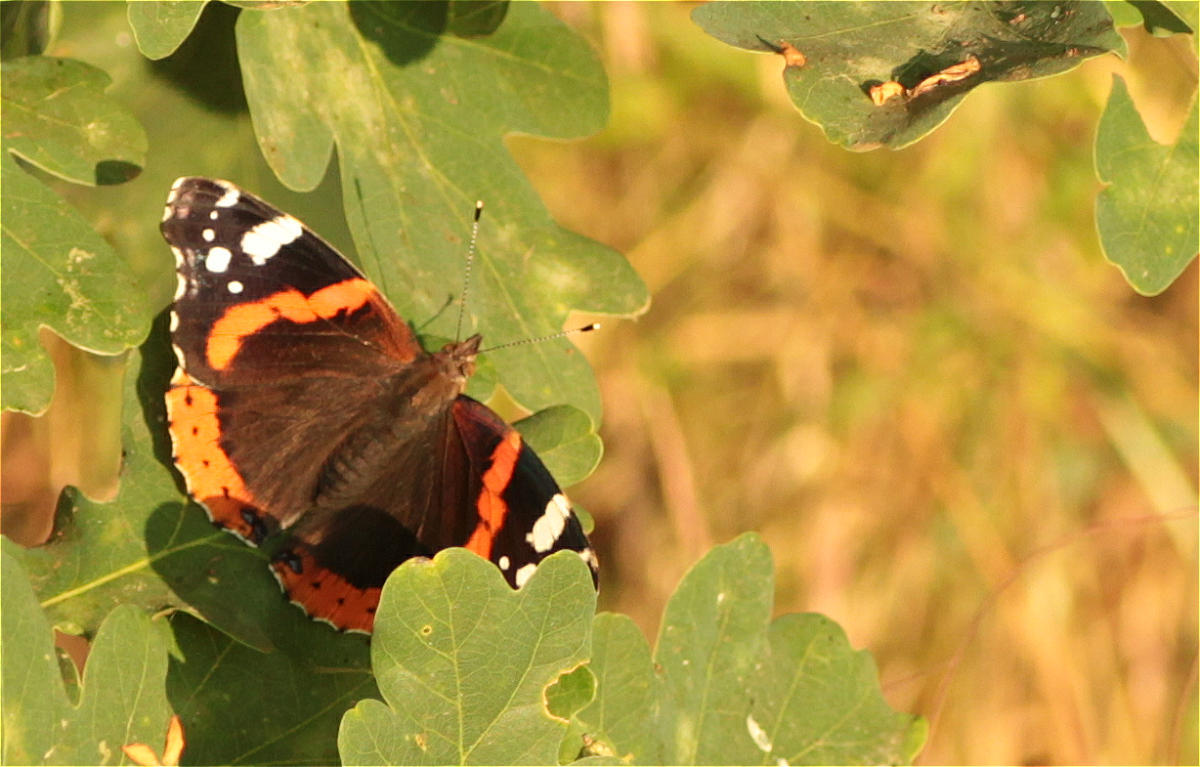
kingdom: Animalia
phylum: Arthropoda
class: Insecta
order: Lepidoptera
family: Nymphalidae
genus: Vanessa
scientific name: Vanessa atalanta
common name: Red admiral
